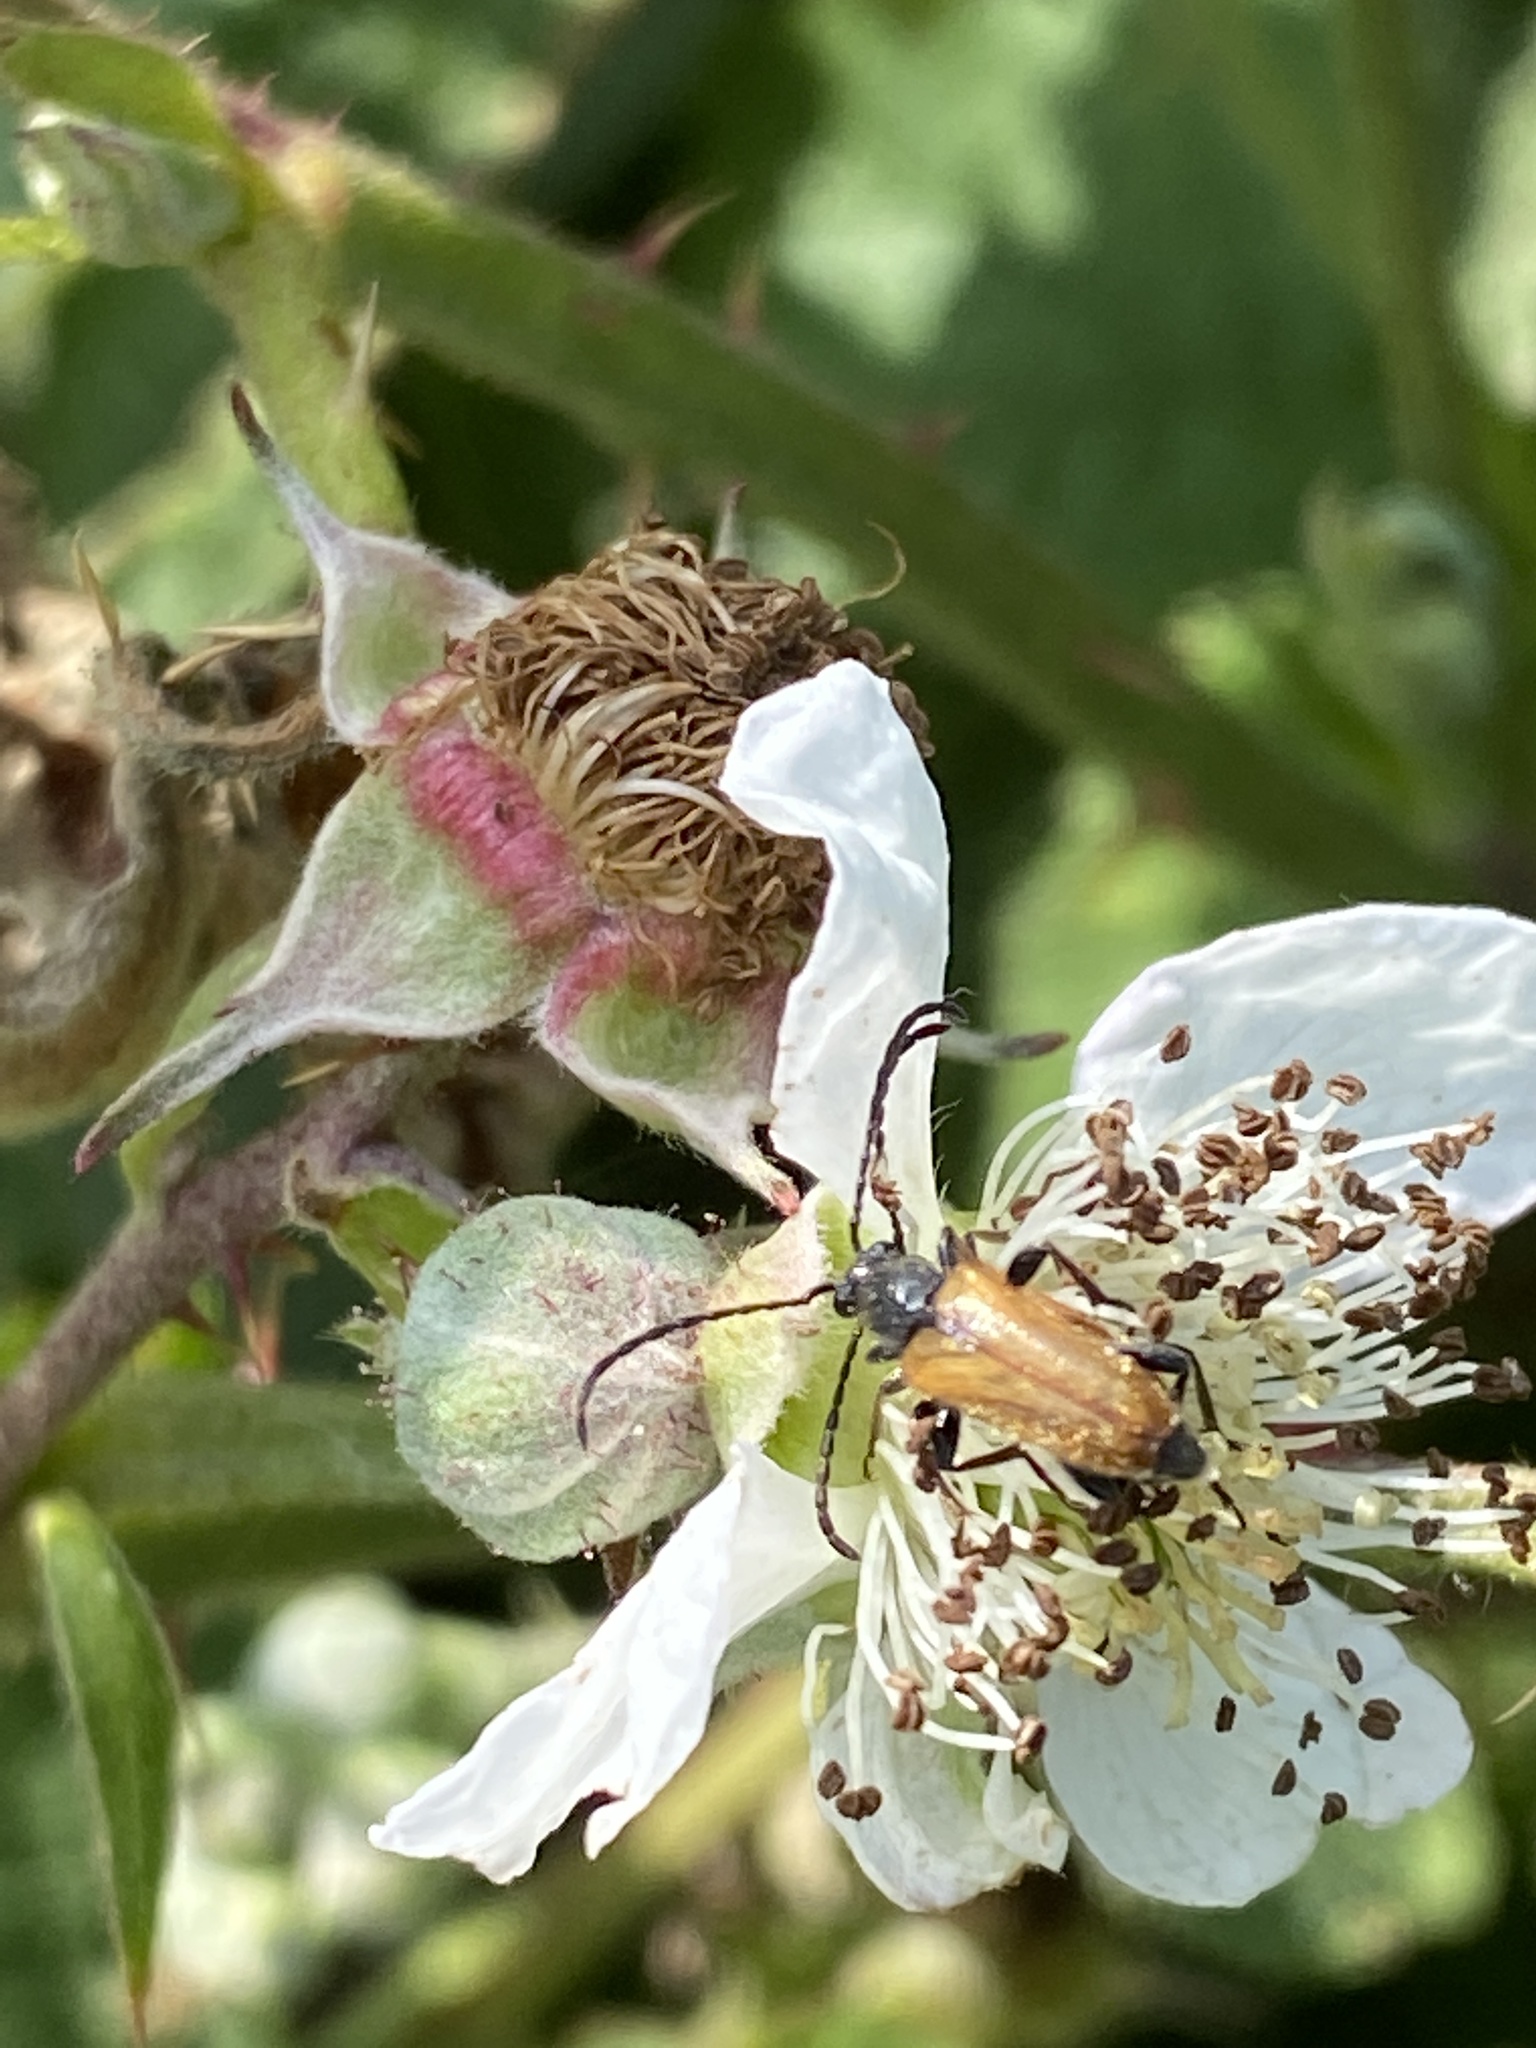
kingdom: Animalia
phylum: Arthropoda
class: Insecta
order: Coleoptera
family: Cerambycidae
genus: Pseudovadonia
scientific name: Pseudovadonia livida
